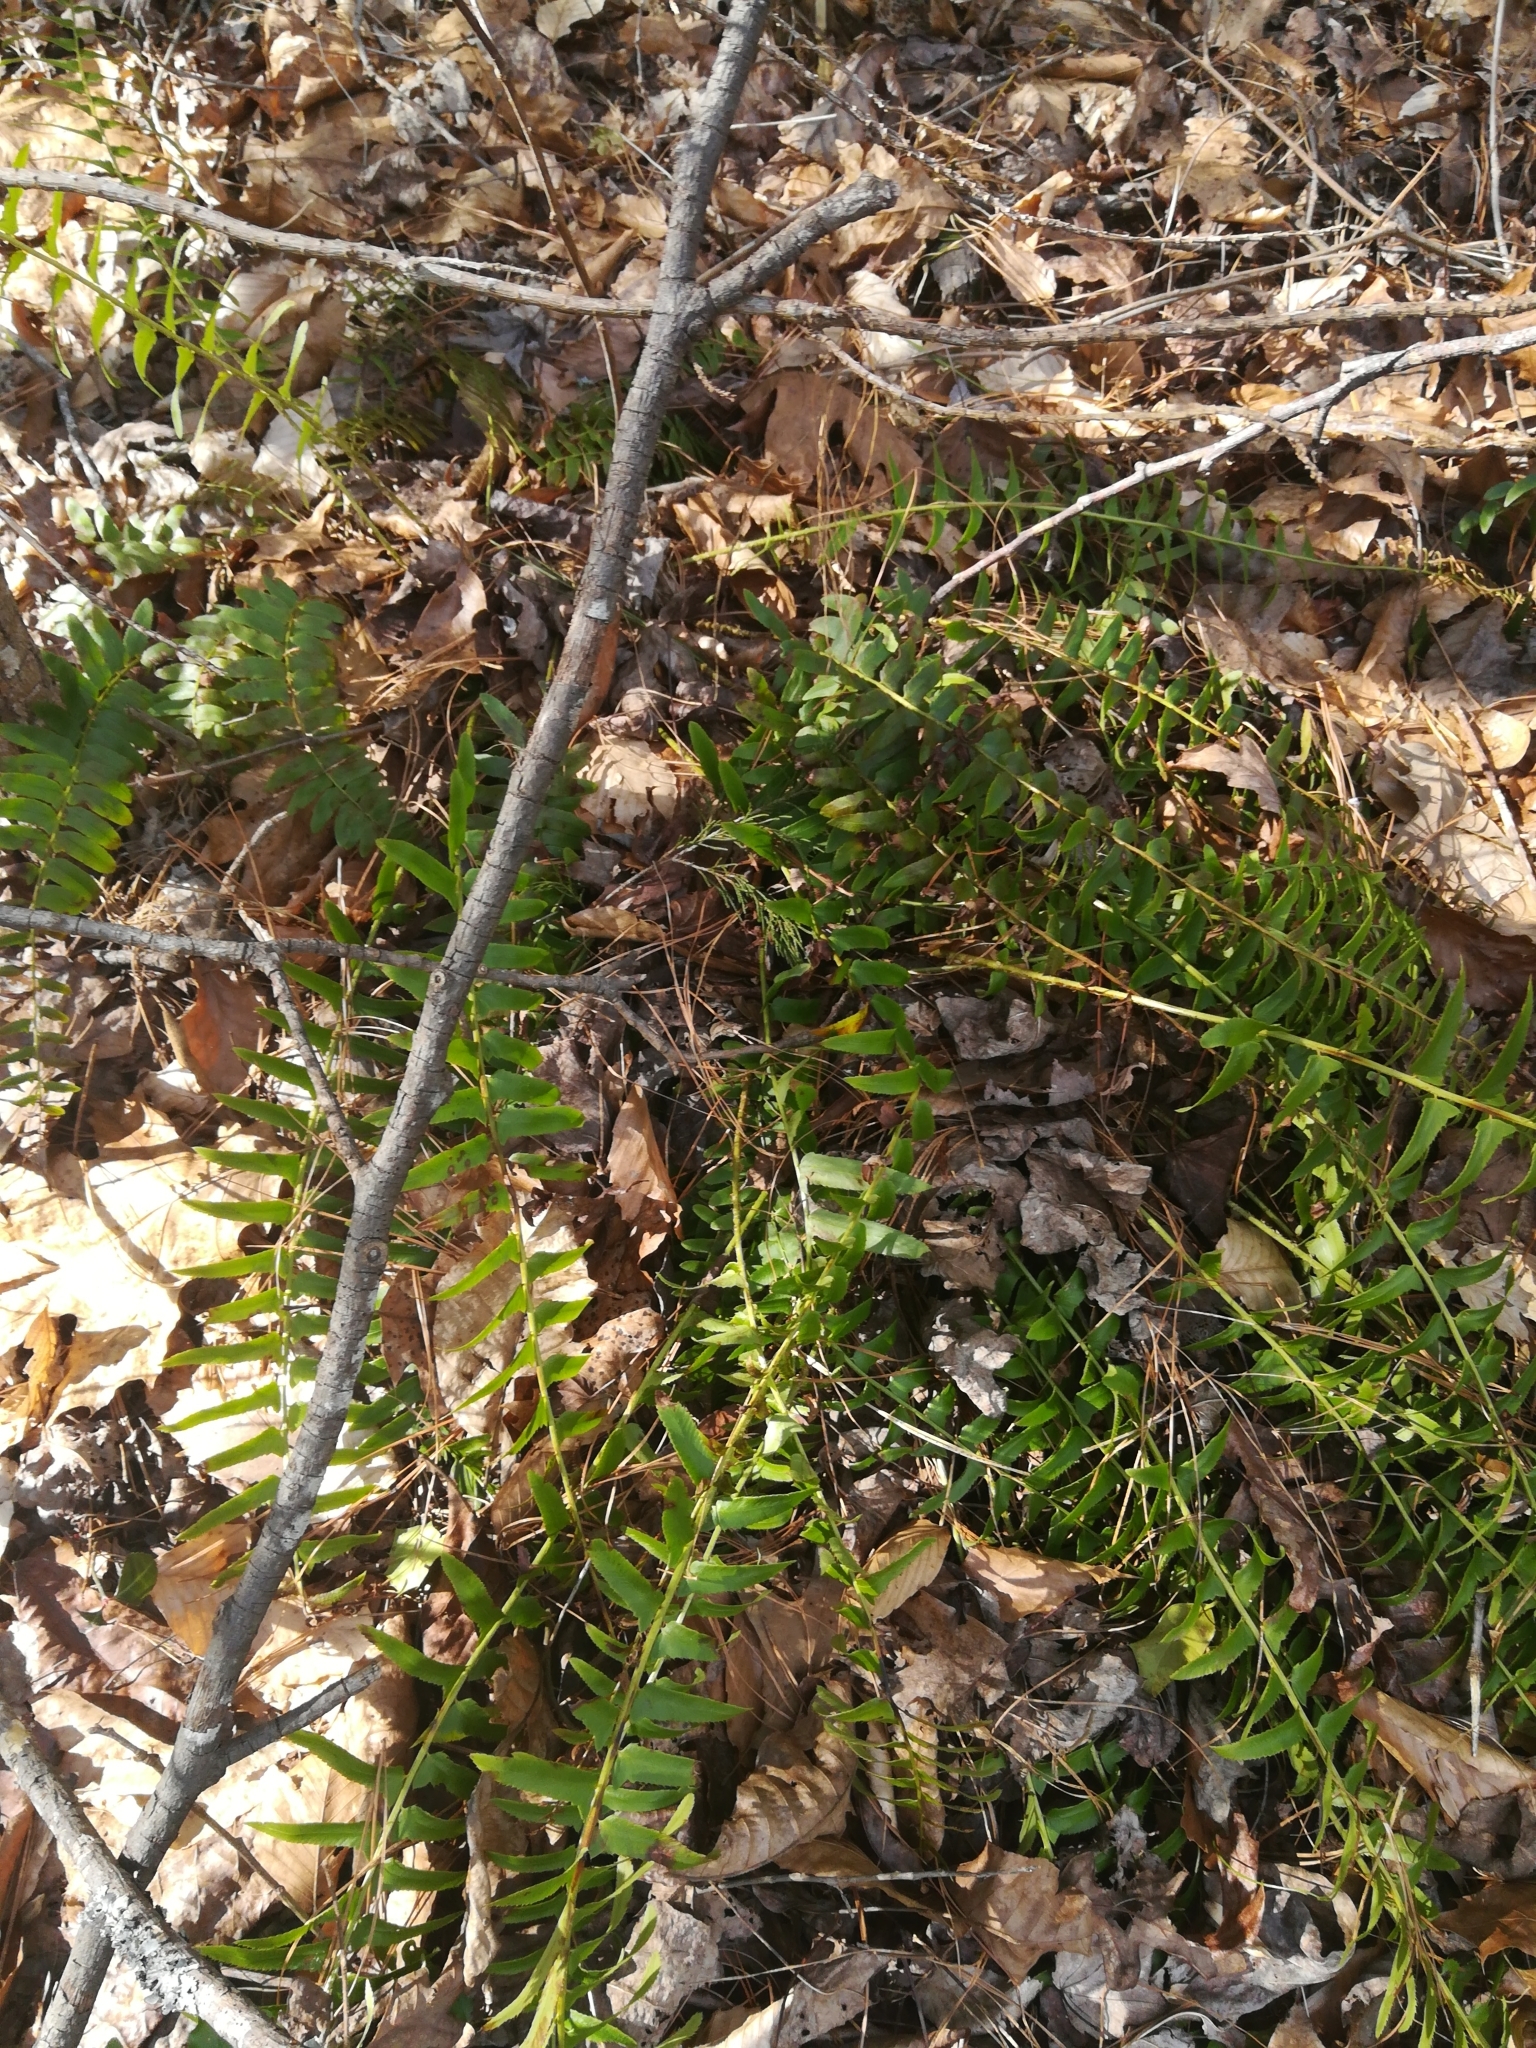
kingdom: Plantae
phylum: Tracheophyta
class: Polypodiopsida
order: Polypodiales
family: Dryopteridaceae
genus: Polystichum
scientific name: Polystichum acrostichoides
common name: Christmas fern
